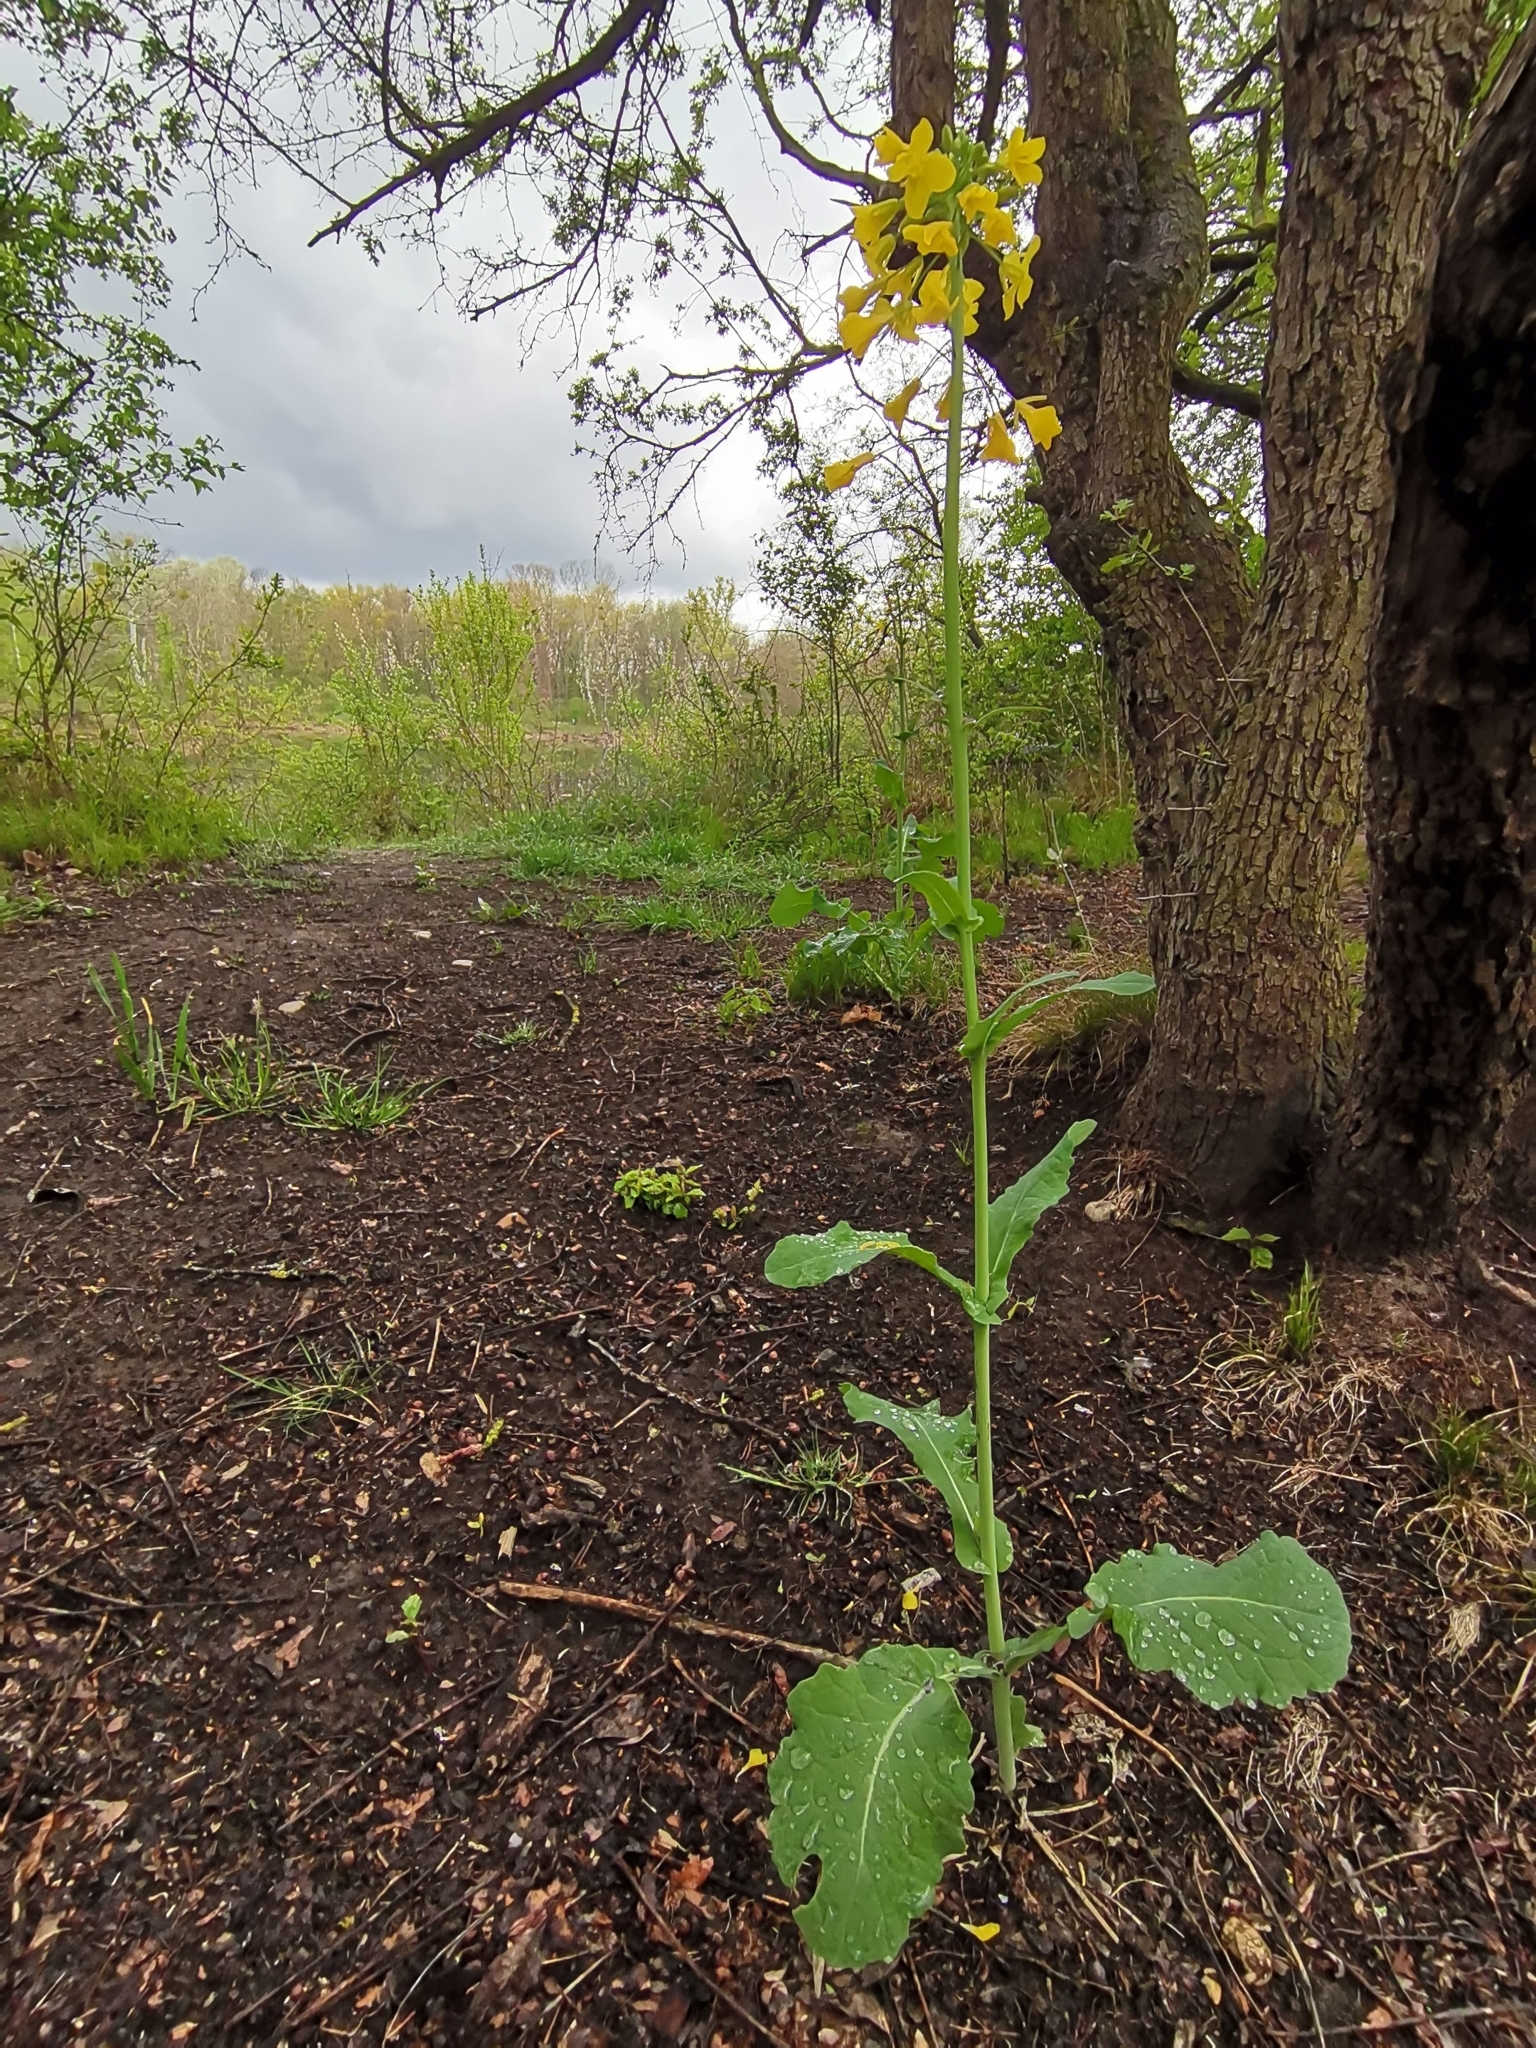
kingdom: Plantae
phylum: Tracheophyta
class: Magnoliopsida
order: Brassicales
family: Brassicaceae
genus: Brassica
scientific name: Brassica napus
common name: Rape
